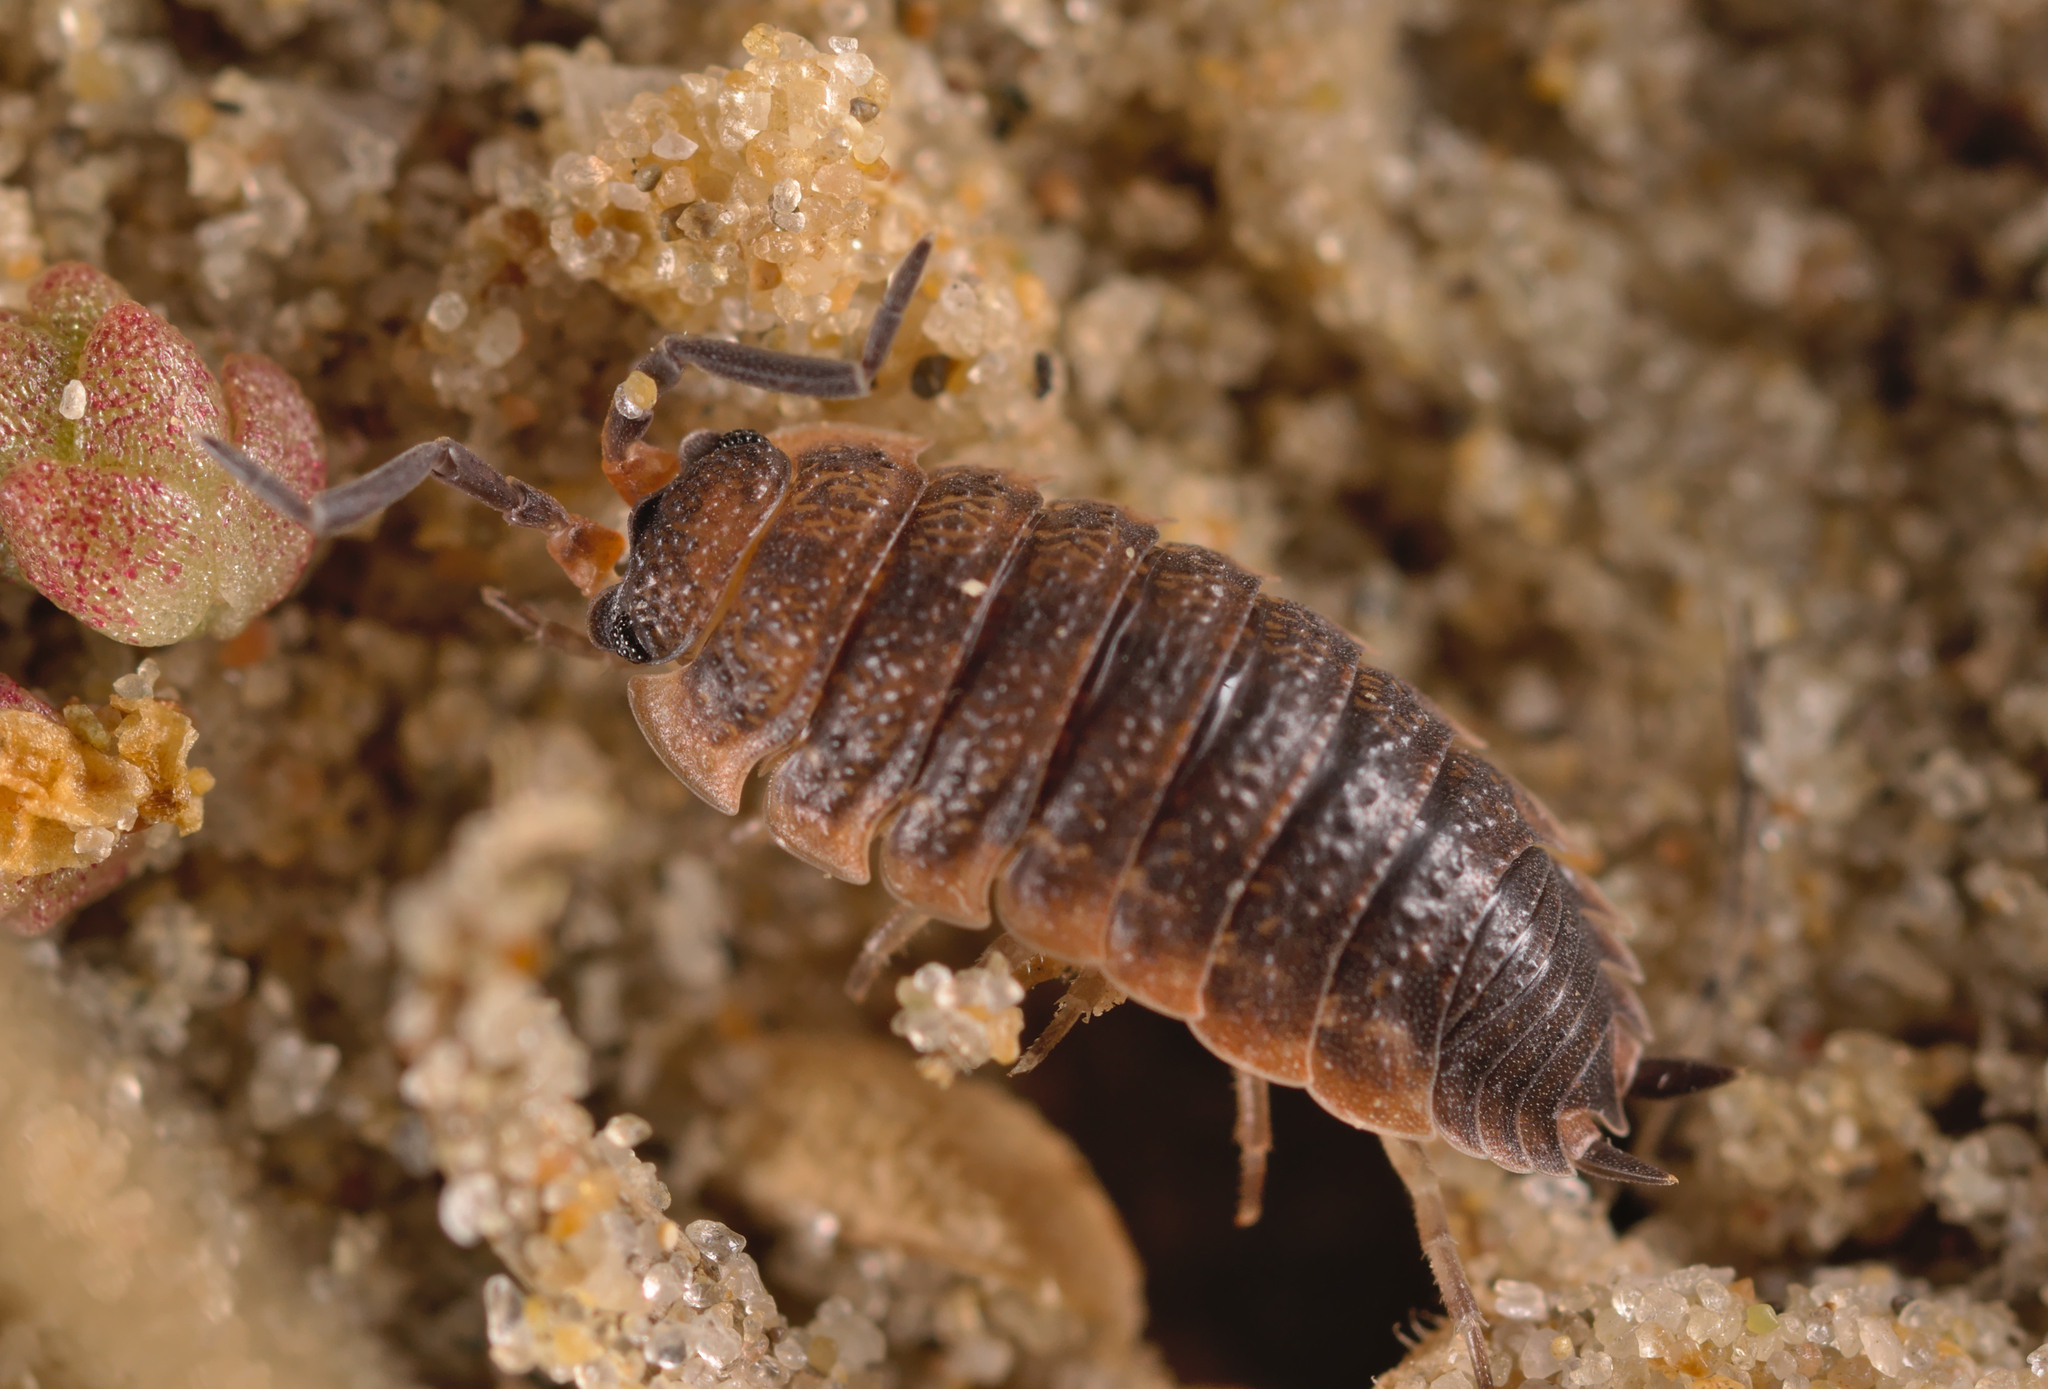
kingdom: Animalia
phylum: Arthropoda
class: Malacostraca
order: Isopoda
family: Porcellionidae
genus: Porcellio
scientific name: Porcellio scaber
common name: Common rough woodlouse
